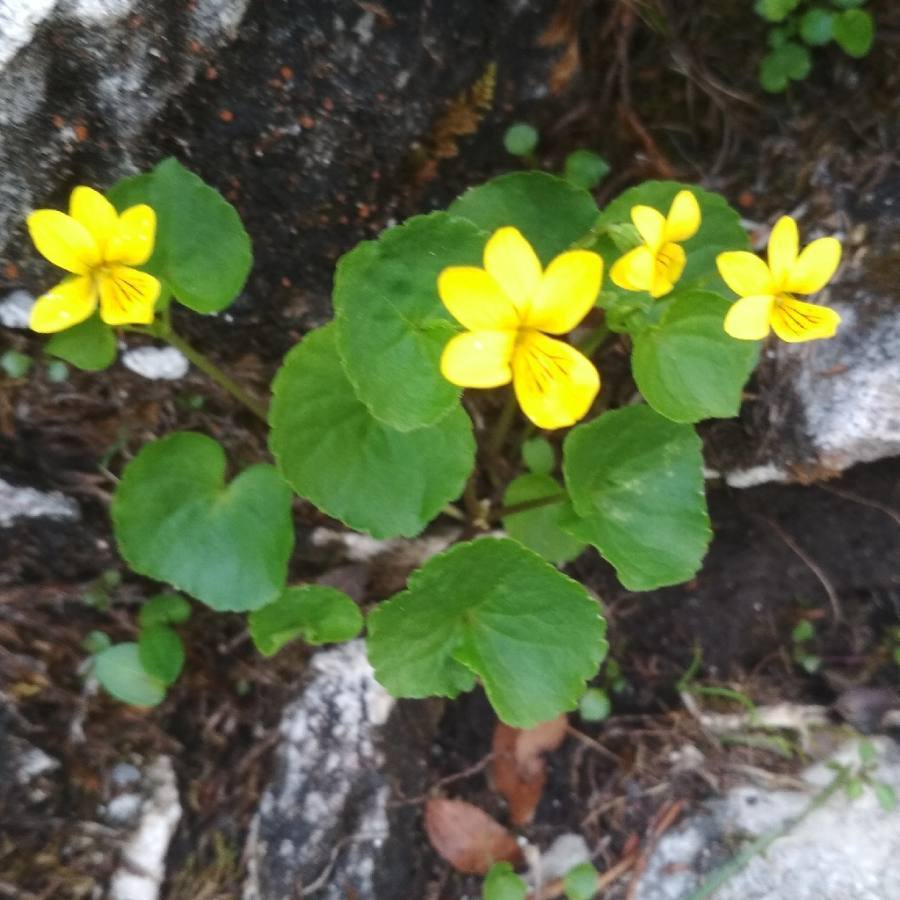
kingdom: Plantae
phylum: Tracheophyta
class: Magnoliopsida
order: Malpighiales
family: Violaceae
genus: Viola
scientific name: Viola biflora
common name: Alpine yellow violet
